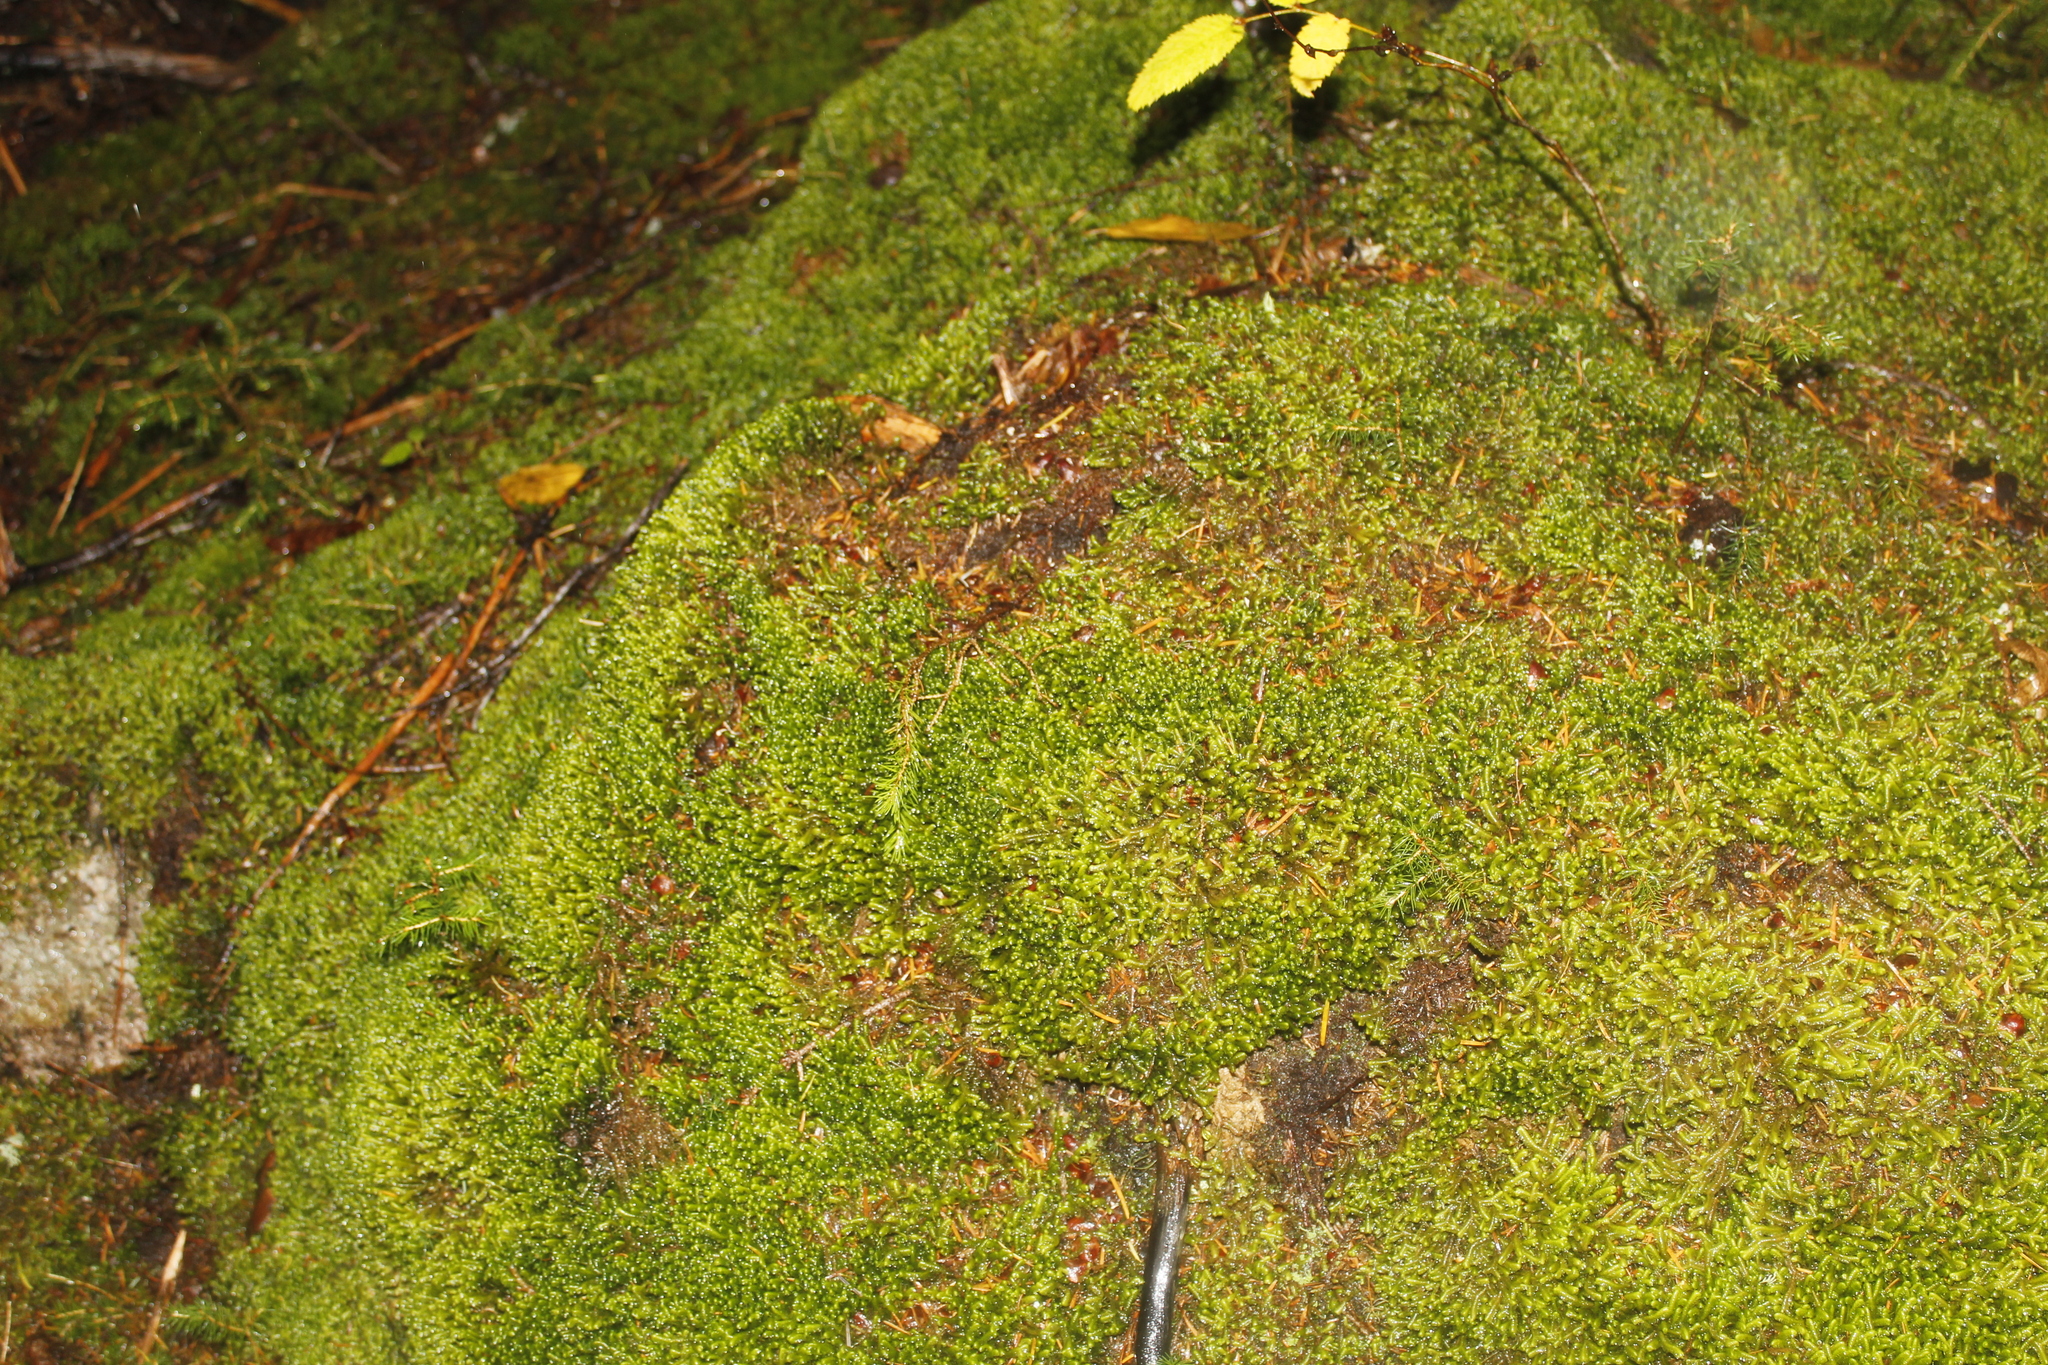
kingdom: Plantae
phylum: Marchantiophyta
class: Jungermanniopsida
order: Jungermanniales
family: Lepidoziaceae
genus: Bazzania
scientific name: Bazzania trilobata
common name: Three-lobed whipwort
